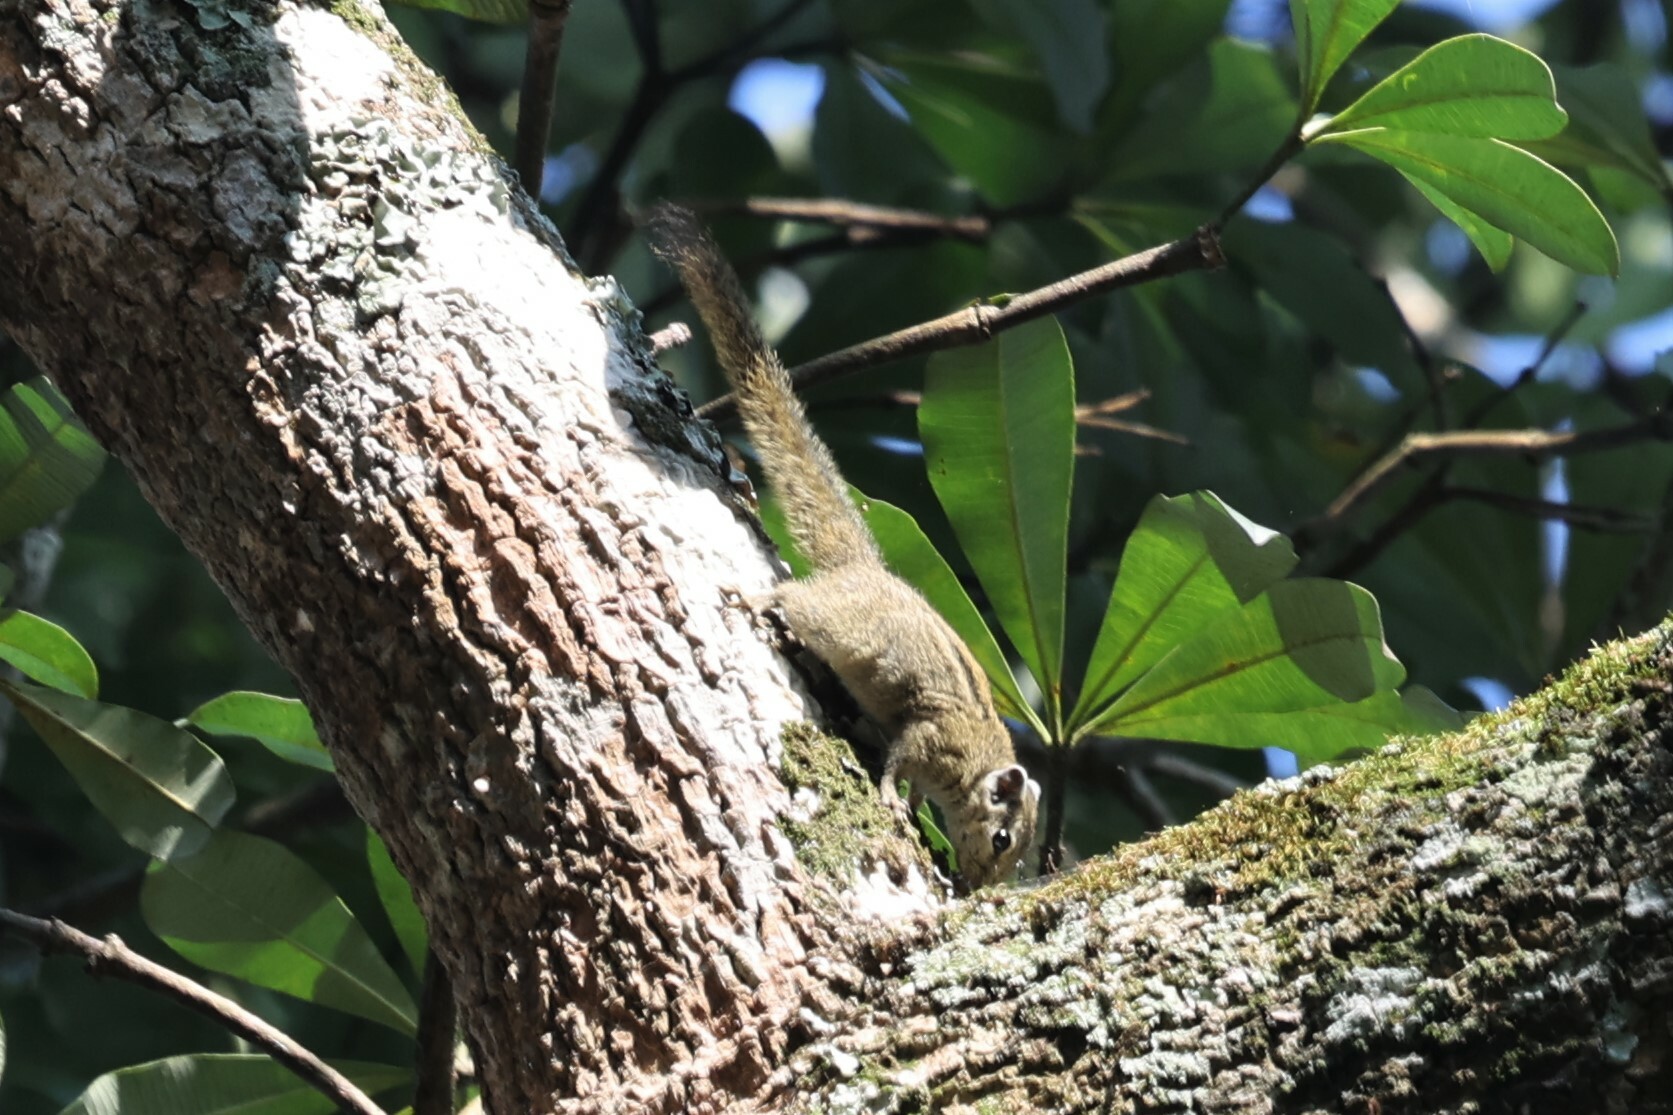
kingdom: Animalia
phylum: Chordata
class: Mammalia
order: Rodentia
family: Sciuridae
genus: Paraxerus
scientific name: Paraxerus alexandri
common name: Alexander's bush squirrel
